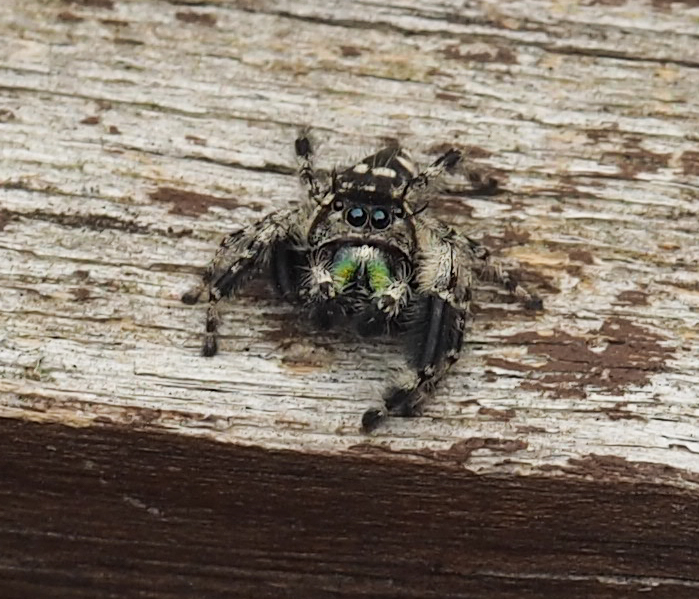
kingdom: Animalia
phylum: Arthropoda
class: Arachnida
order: Araneae
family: Salticidae
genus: Phidippus
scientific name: Phidippus otiosus
